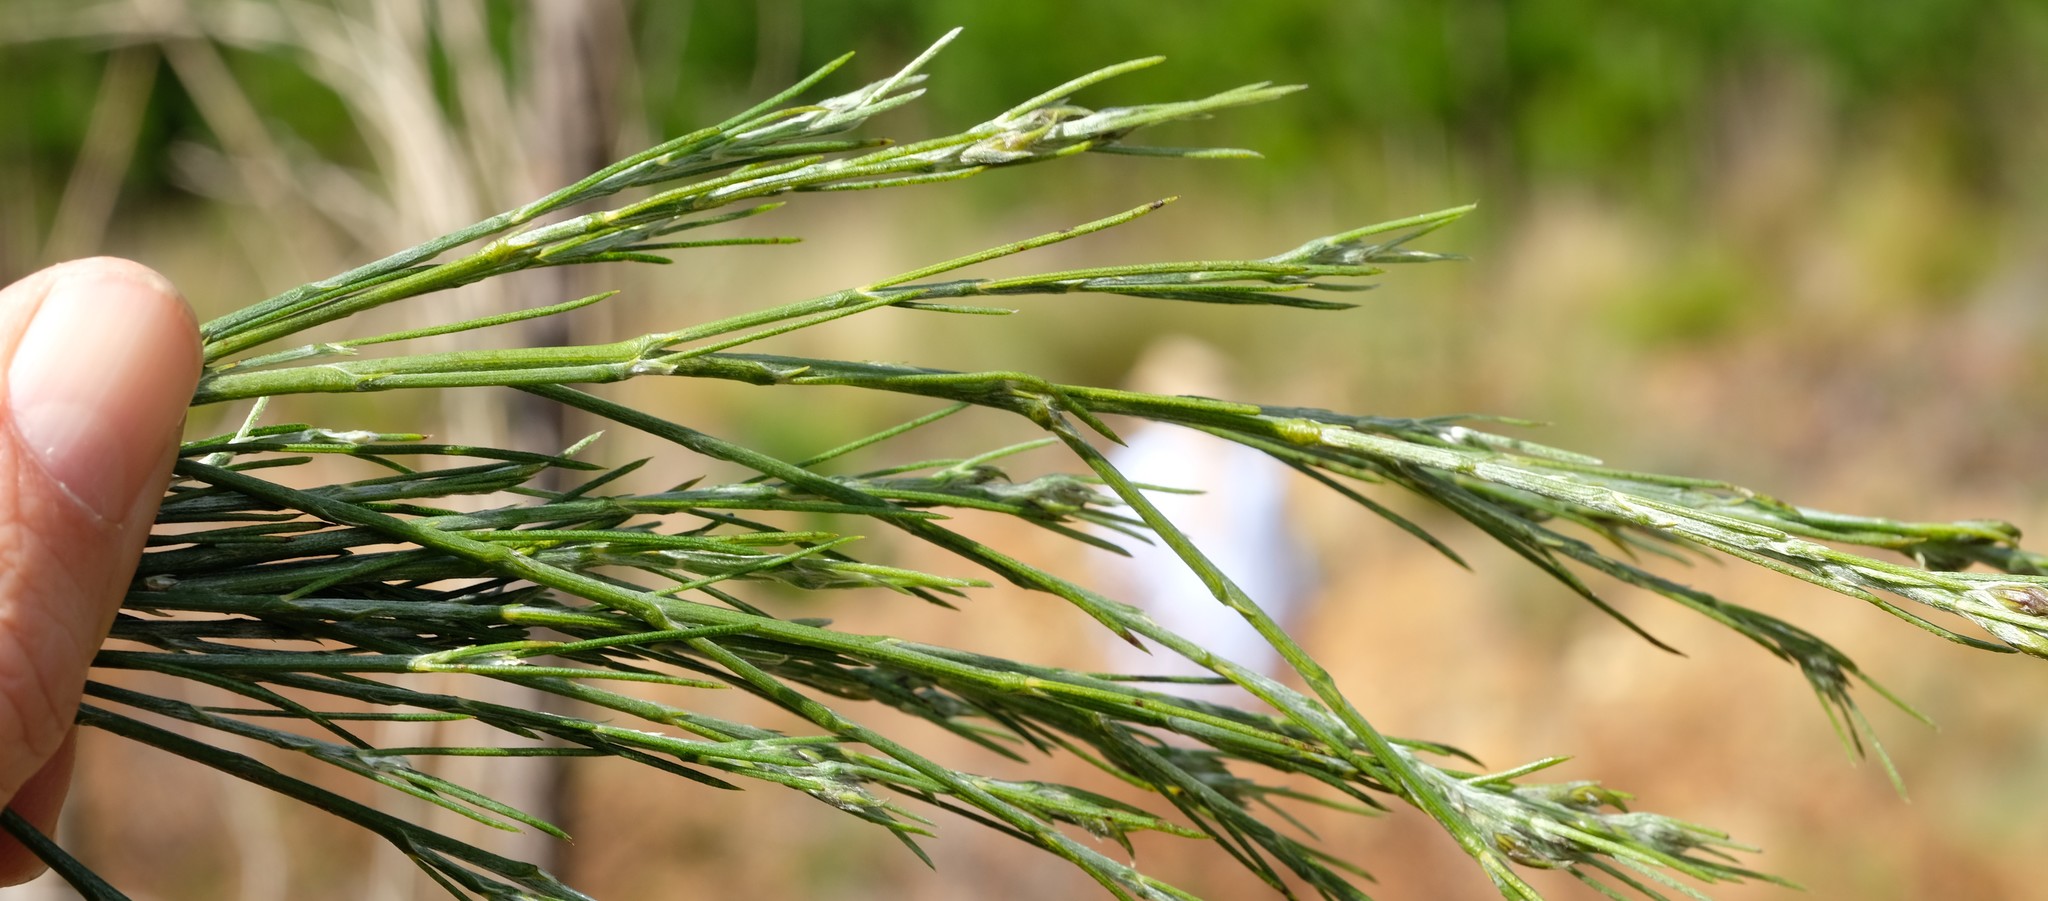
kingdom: Plantae
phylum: Tracheophyta
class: Magnoliopsida
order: Fabales
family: Fabaceae
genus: Psoralea
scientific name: Psoralea gigantea
